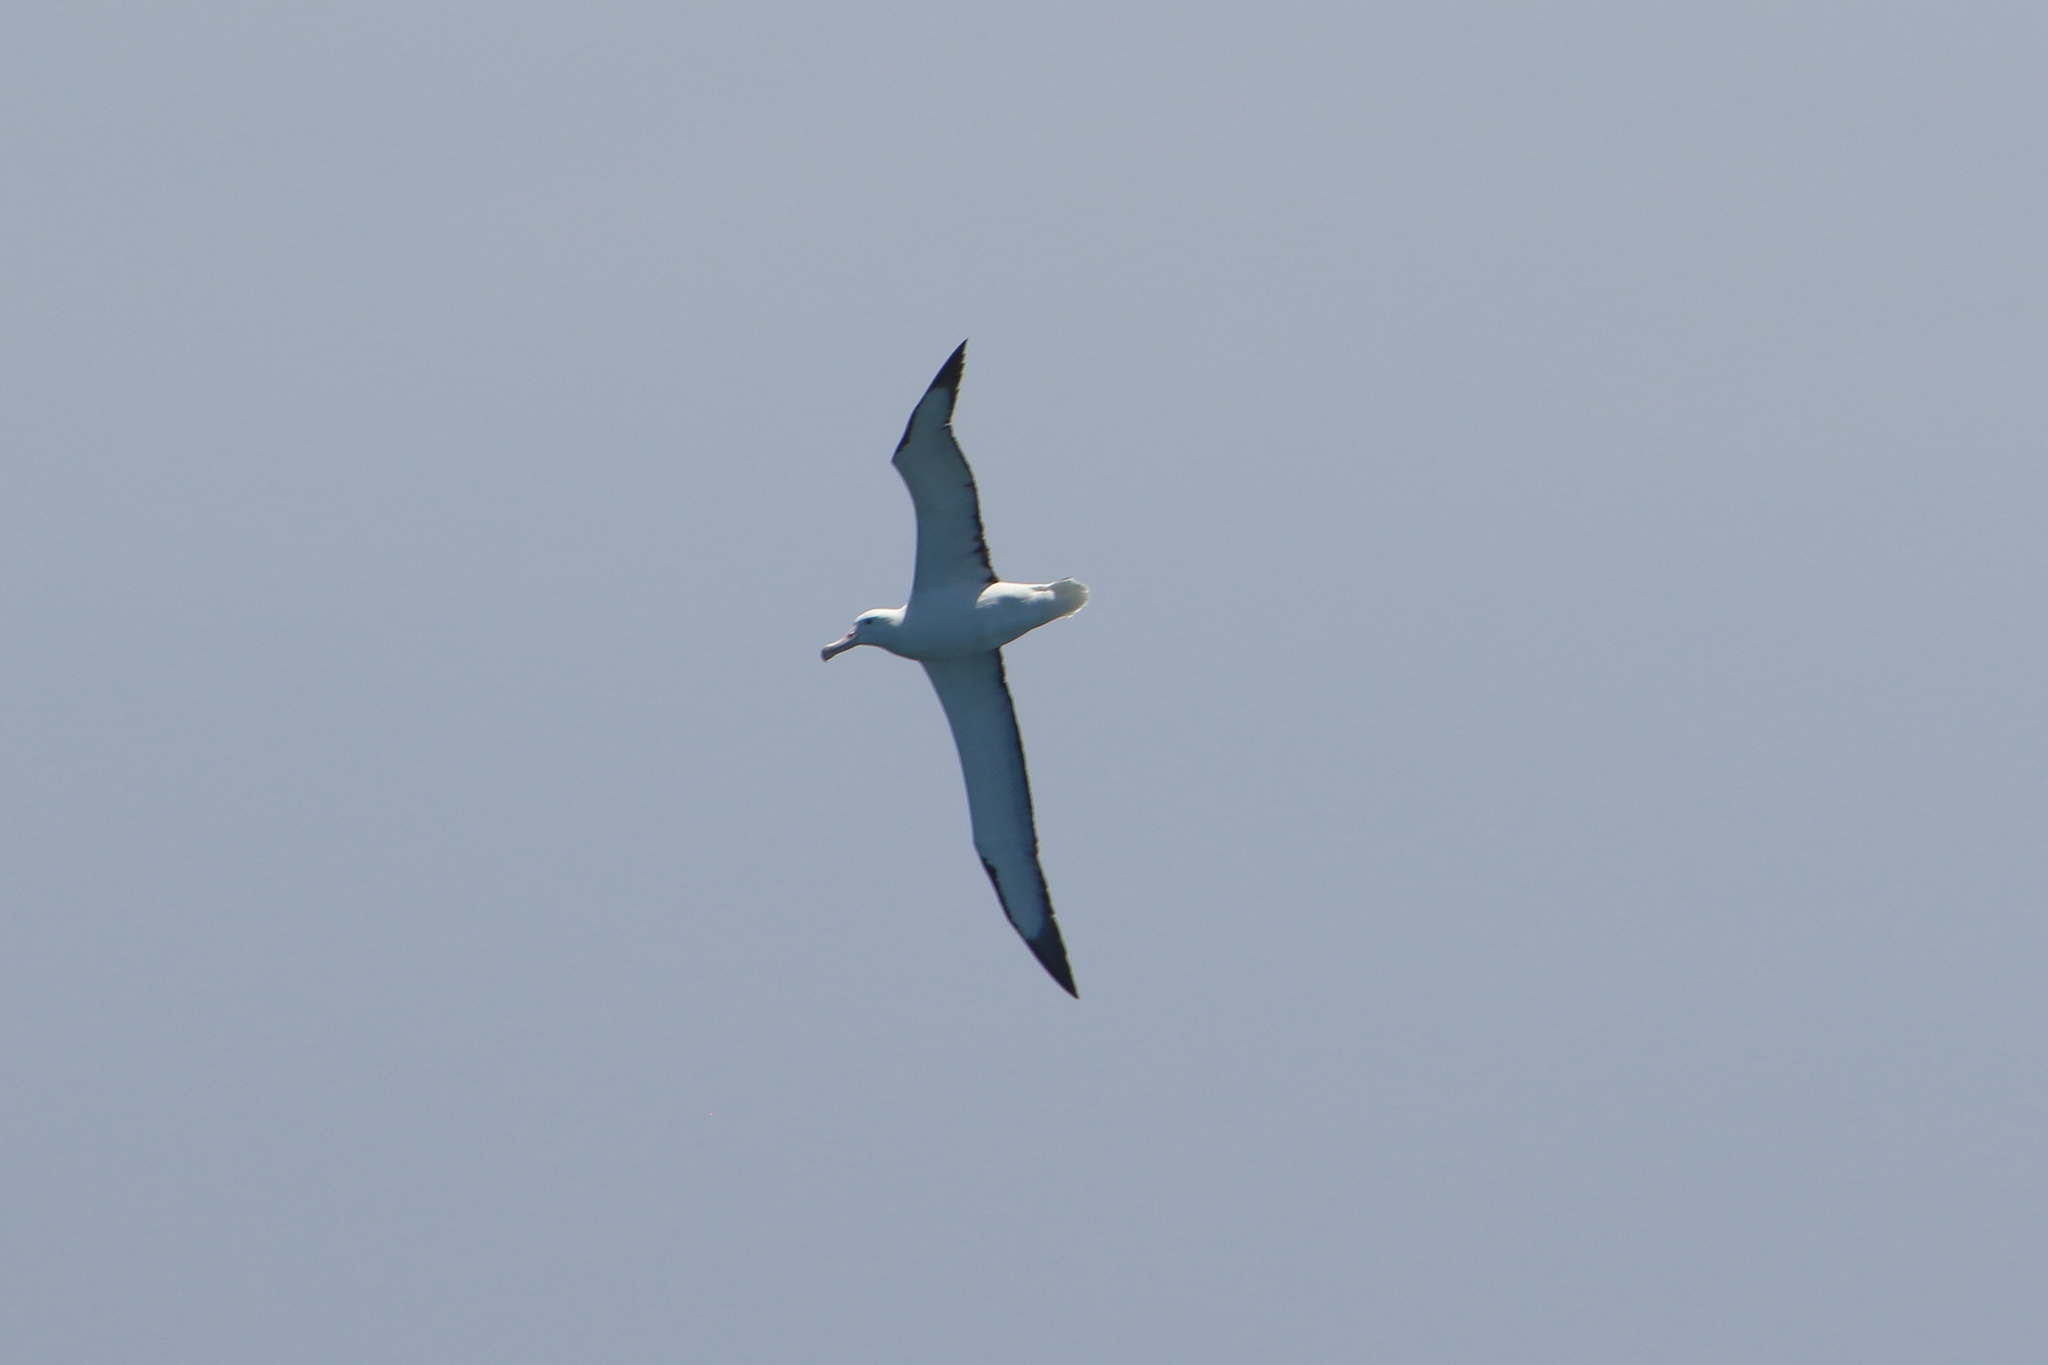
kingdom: Animalia
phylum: Chordata
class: Aves
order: Procellariiformes
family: Diomedeidae
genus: Diomedea
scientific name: Diomedea sanfordi
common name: Northern royal albatross
